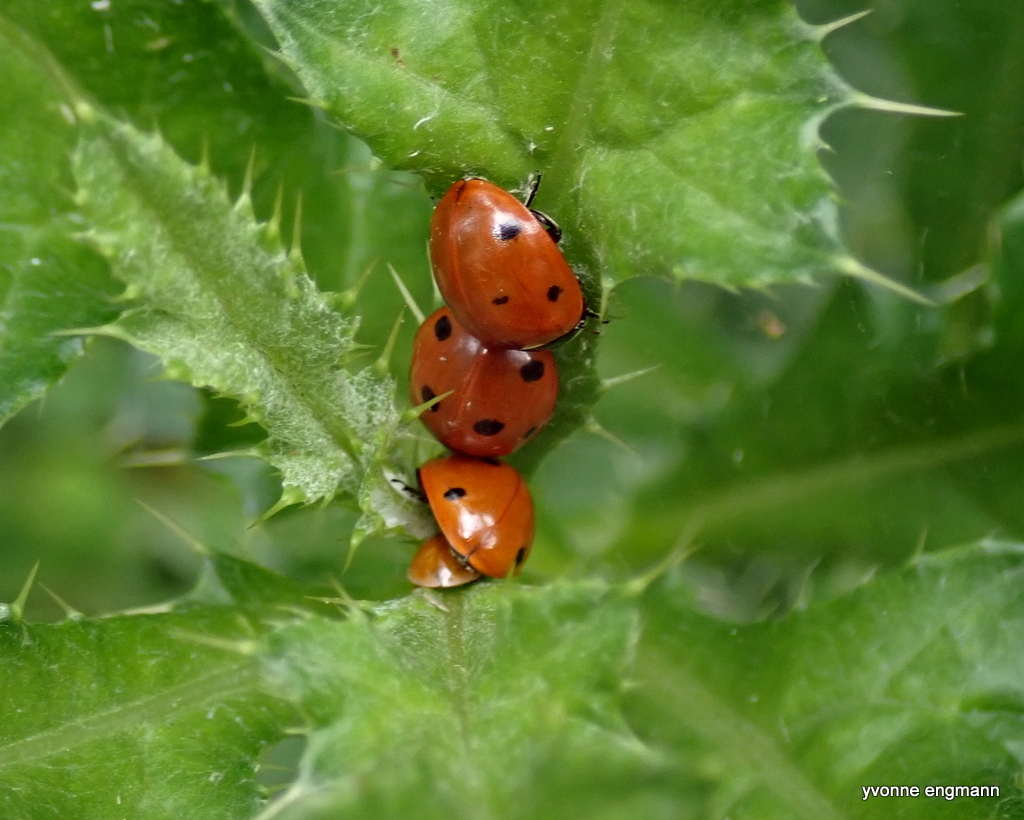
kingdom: Animalia
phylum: Arthropoda
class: Insecta
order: Coleoptera
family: Coccinellidae
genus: Coccinella
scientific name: Coccinella septempunctata
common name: Sevenspotted lady beetle
